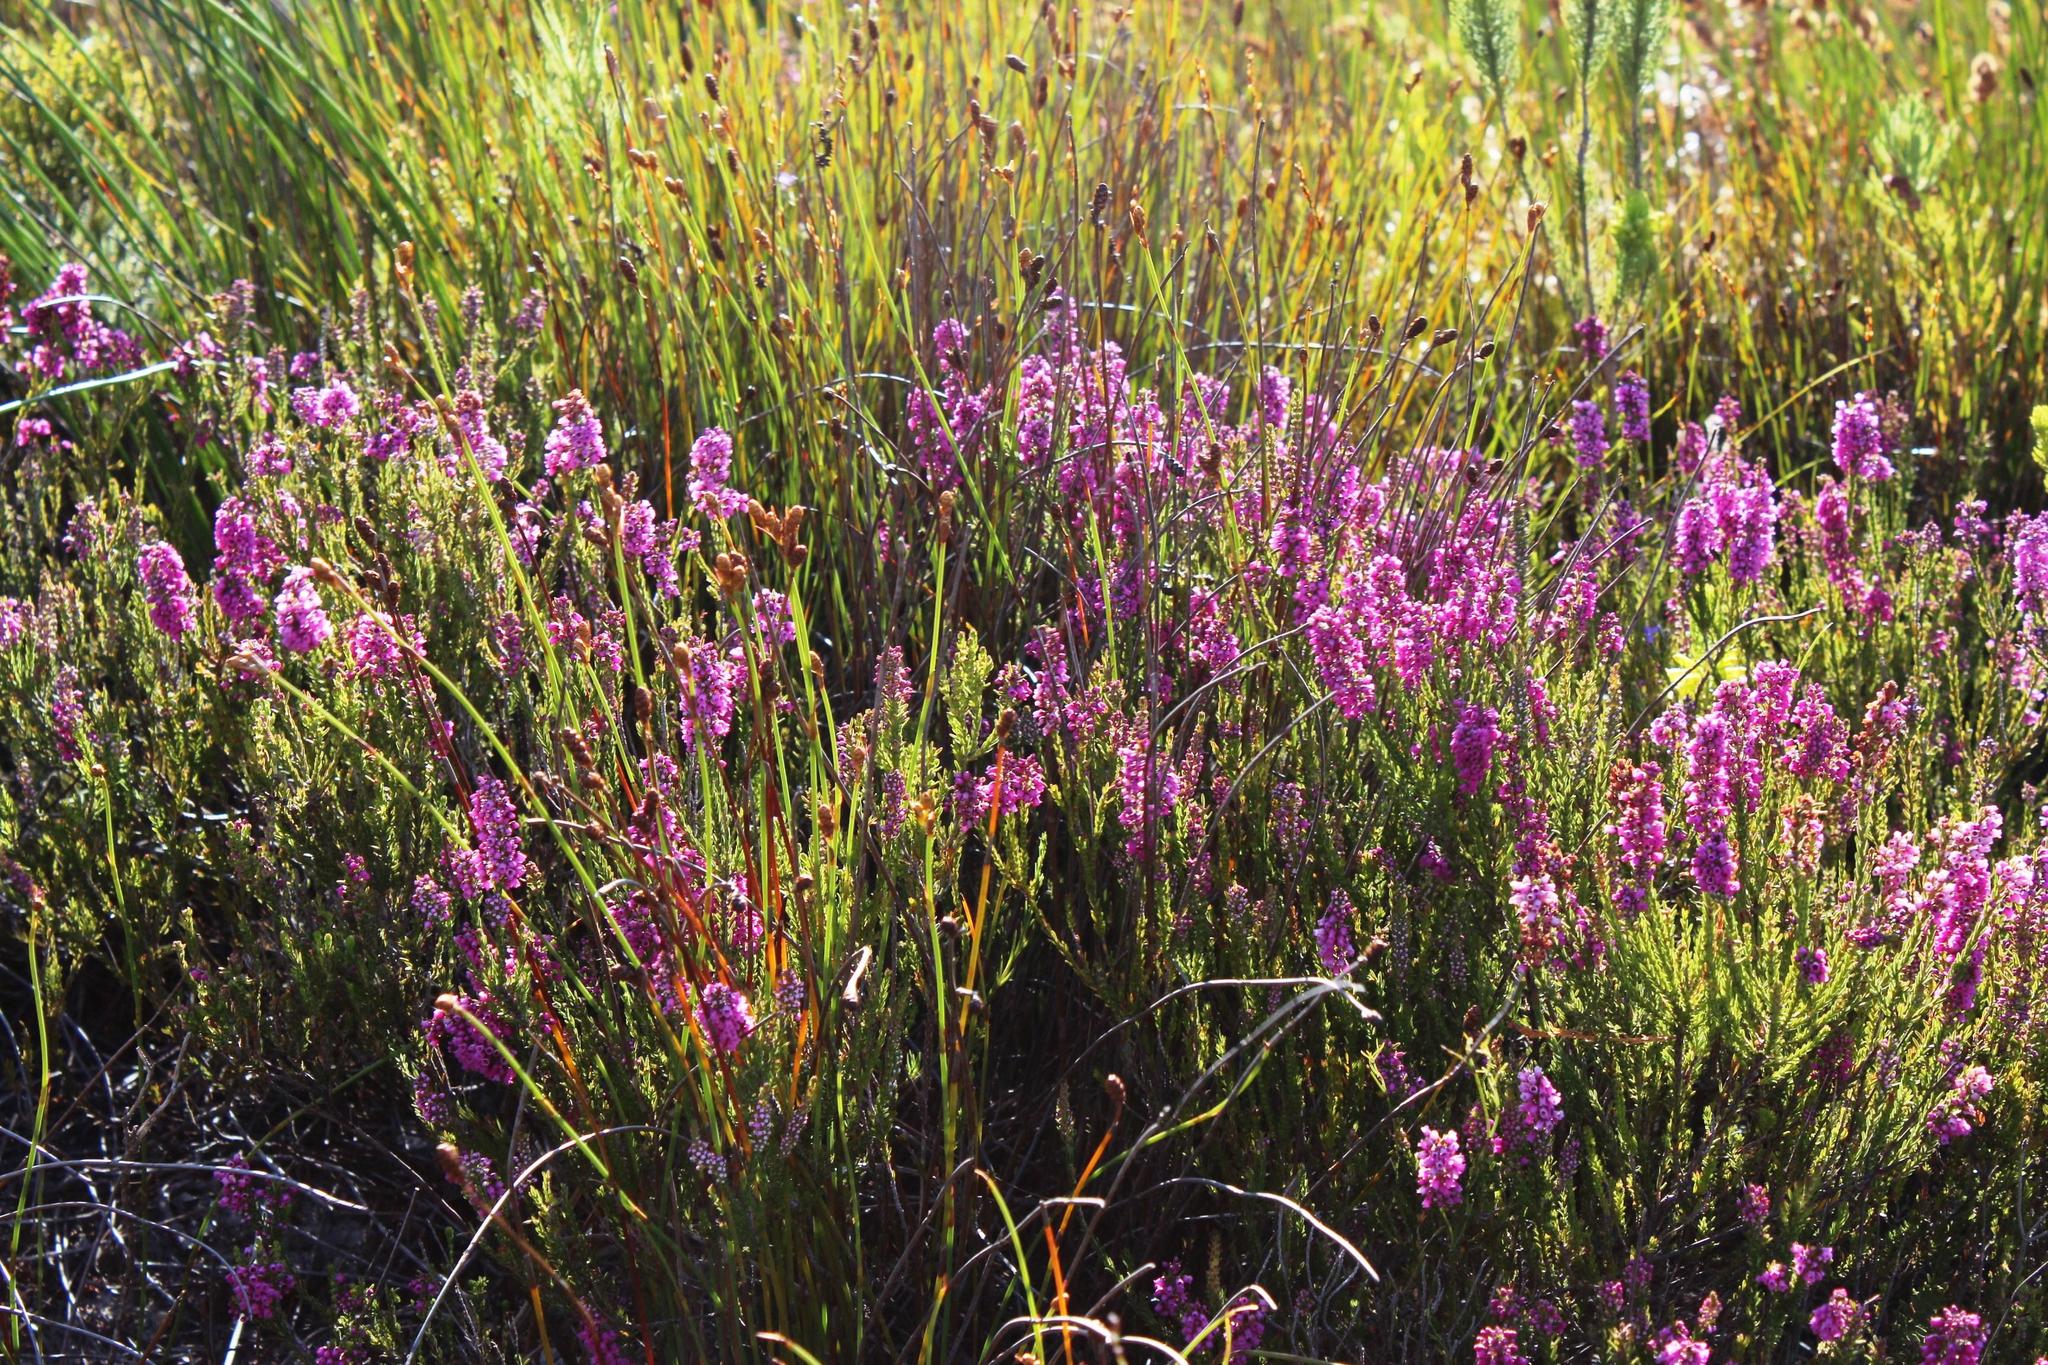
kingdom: Plantae
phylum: Tracheophyta
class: Magnoliopsida
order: Ericales
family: Ericaceae
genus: Erica
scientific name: Erica pulchella
